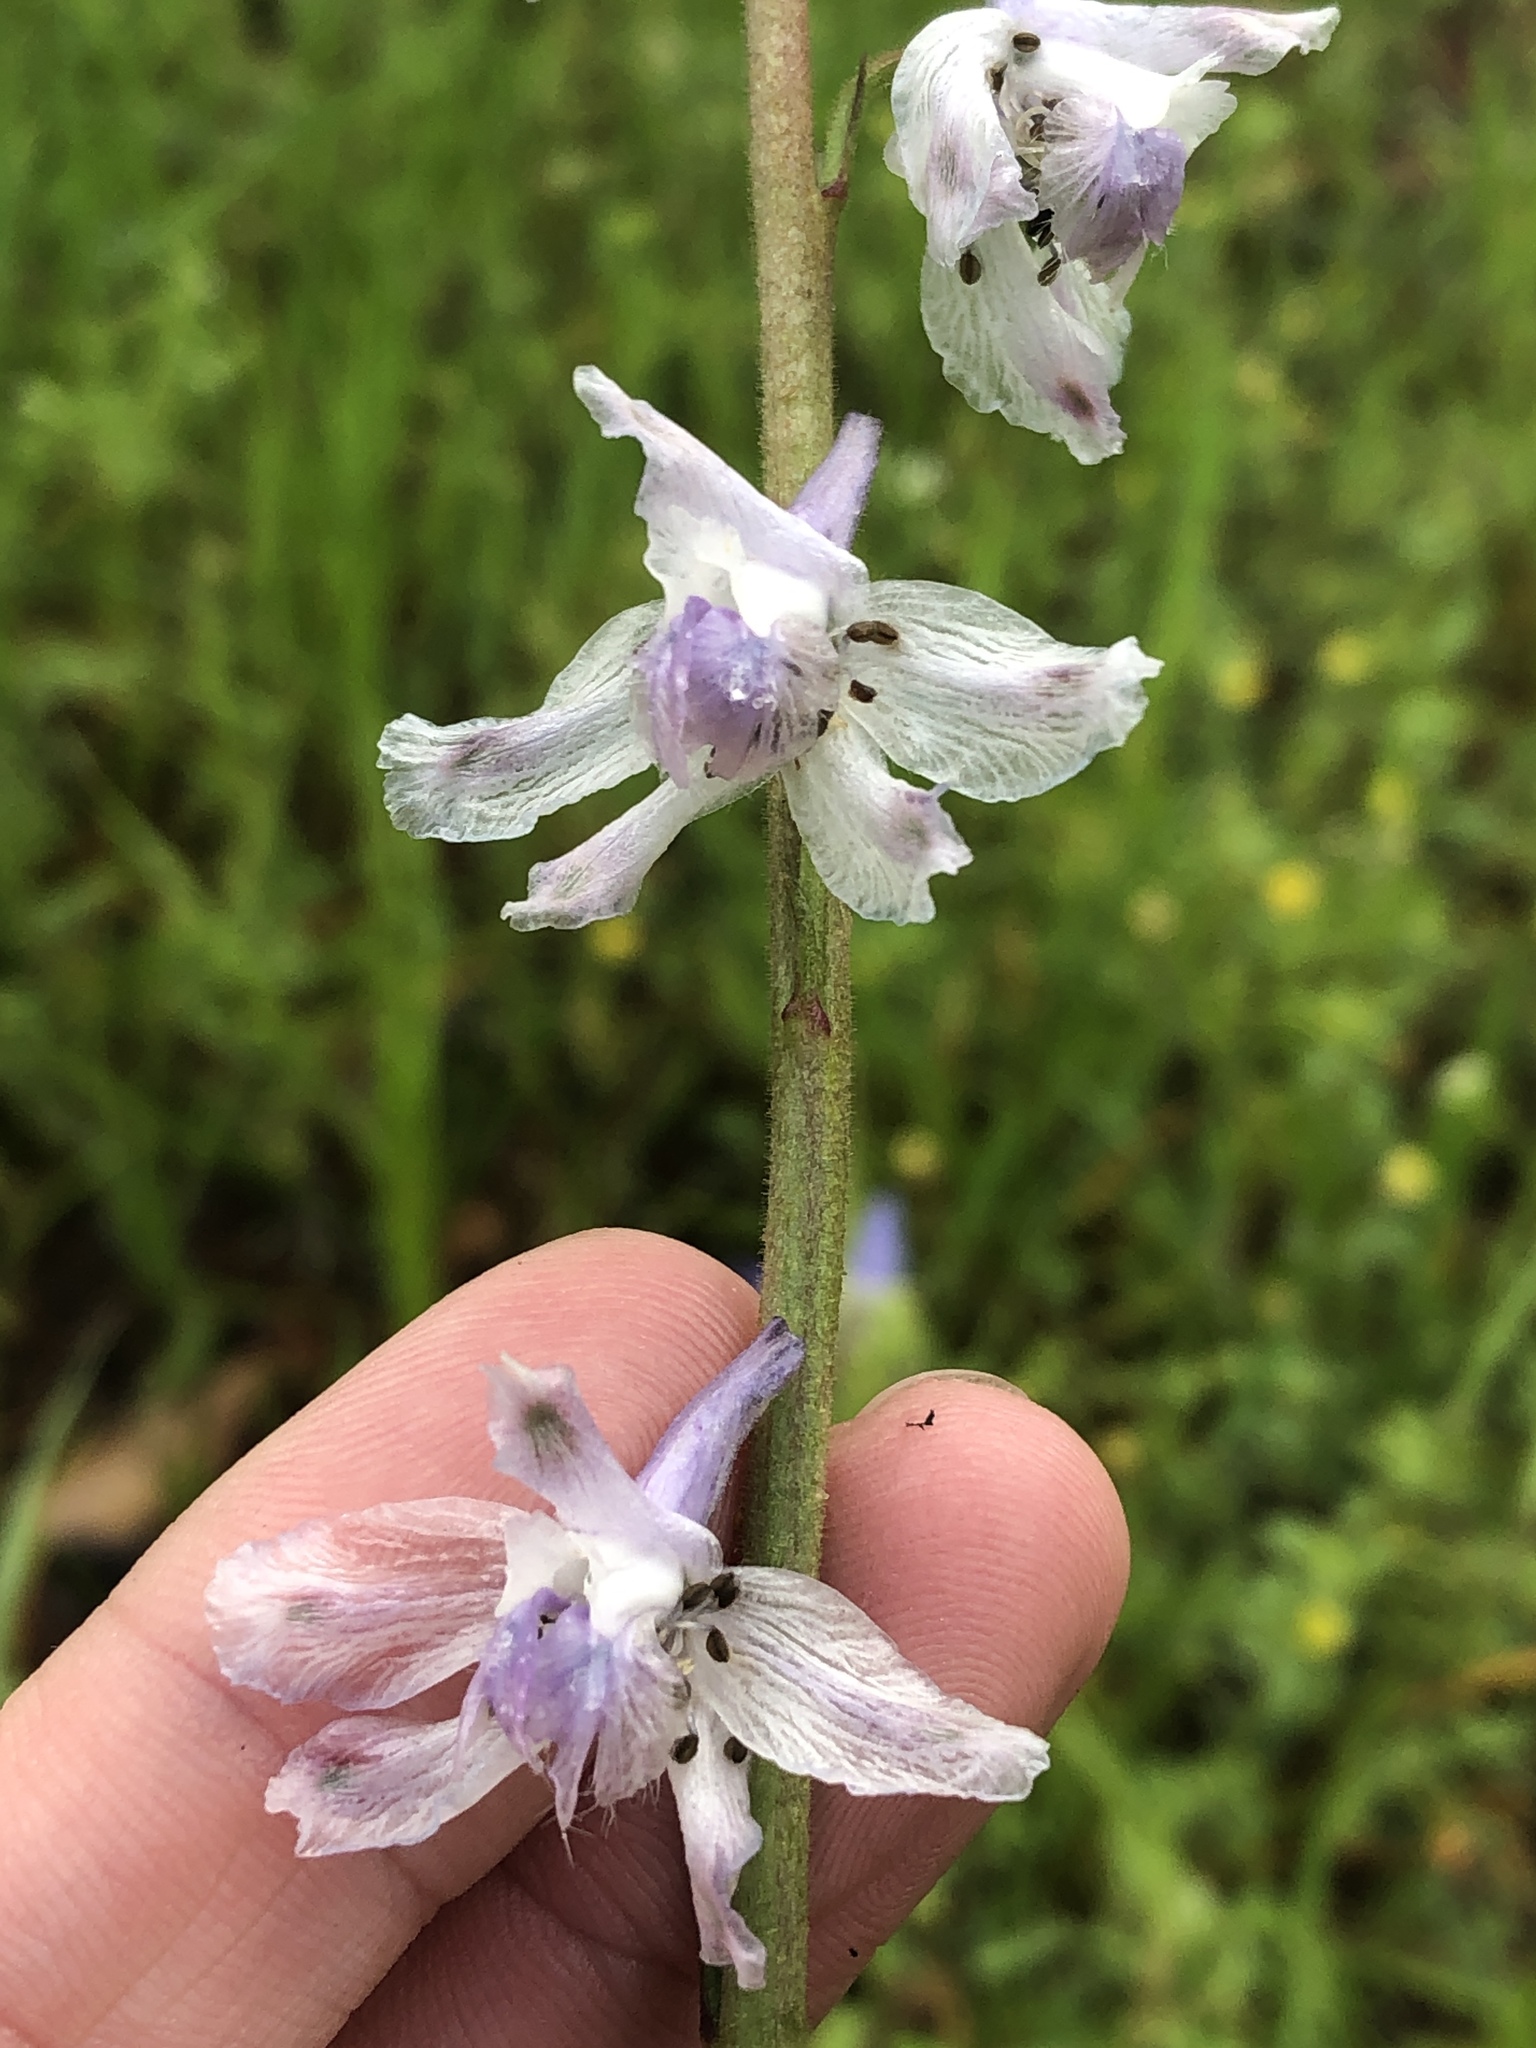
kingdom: Plantae
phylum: Tracheophyta
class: Magnoliopsida
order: Ranunculales
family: Ranunculaceae
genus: Delphinium
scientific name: Delphinium carolinianum
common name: Carolina larkspur
